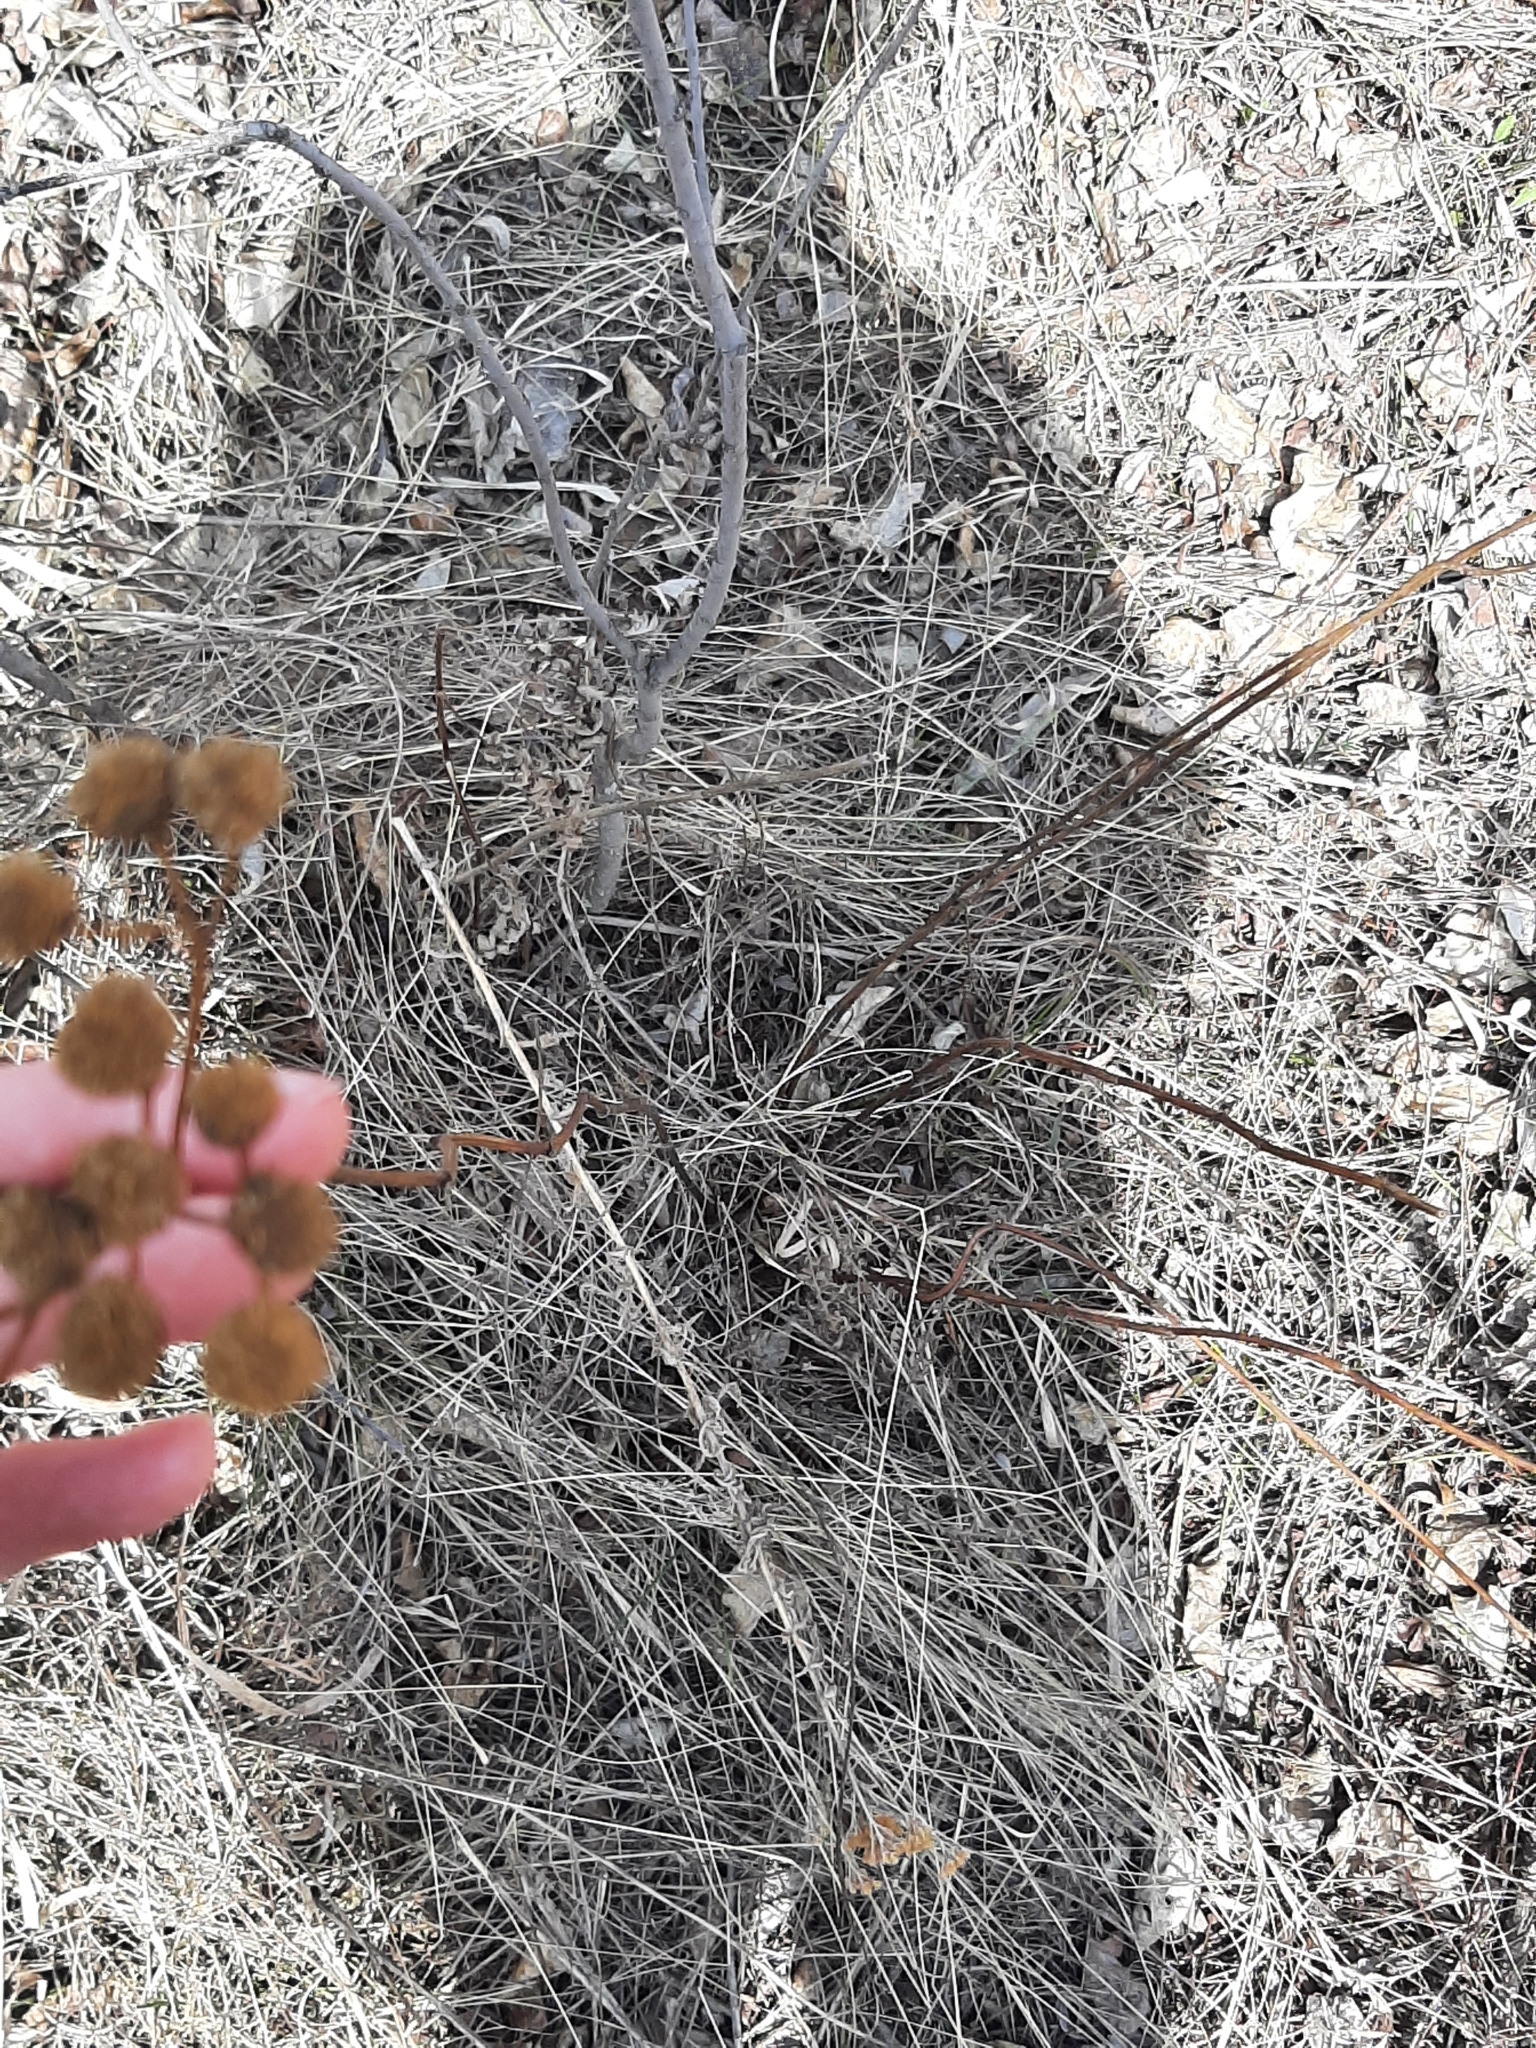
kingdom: Plantae
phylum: Tracheophyta
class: Magnoliopsida
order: Asterales
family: Asteraceae
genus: Tanacetum
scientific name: Tanacetum vulgare
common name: Common tansy
